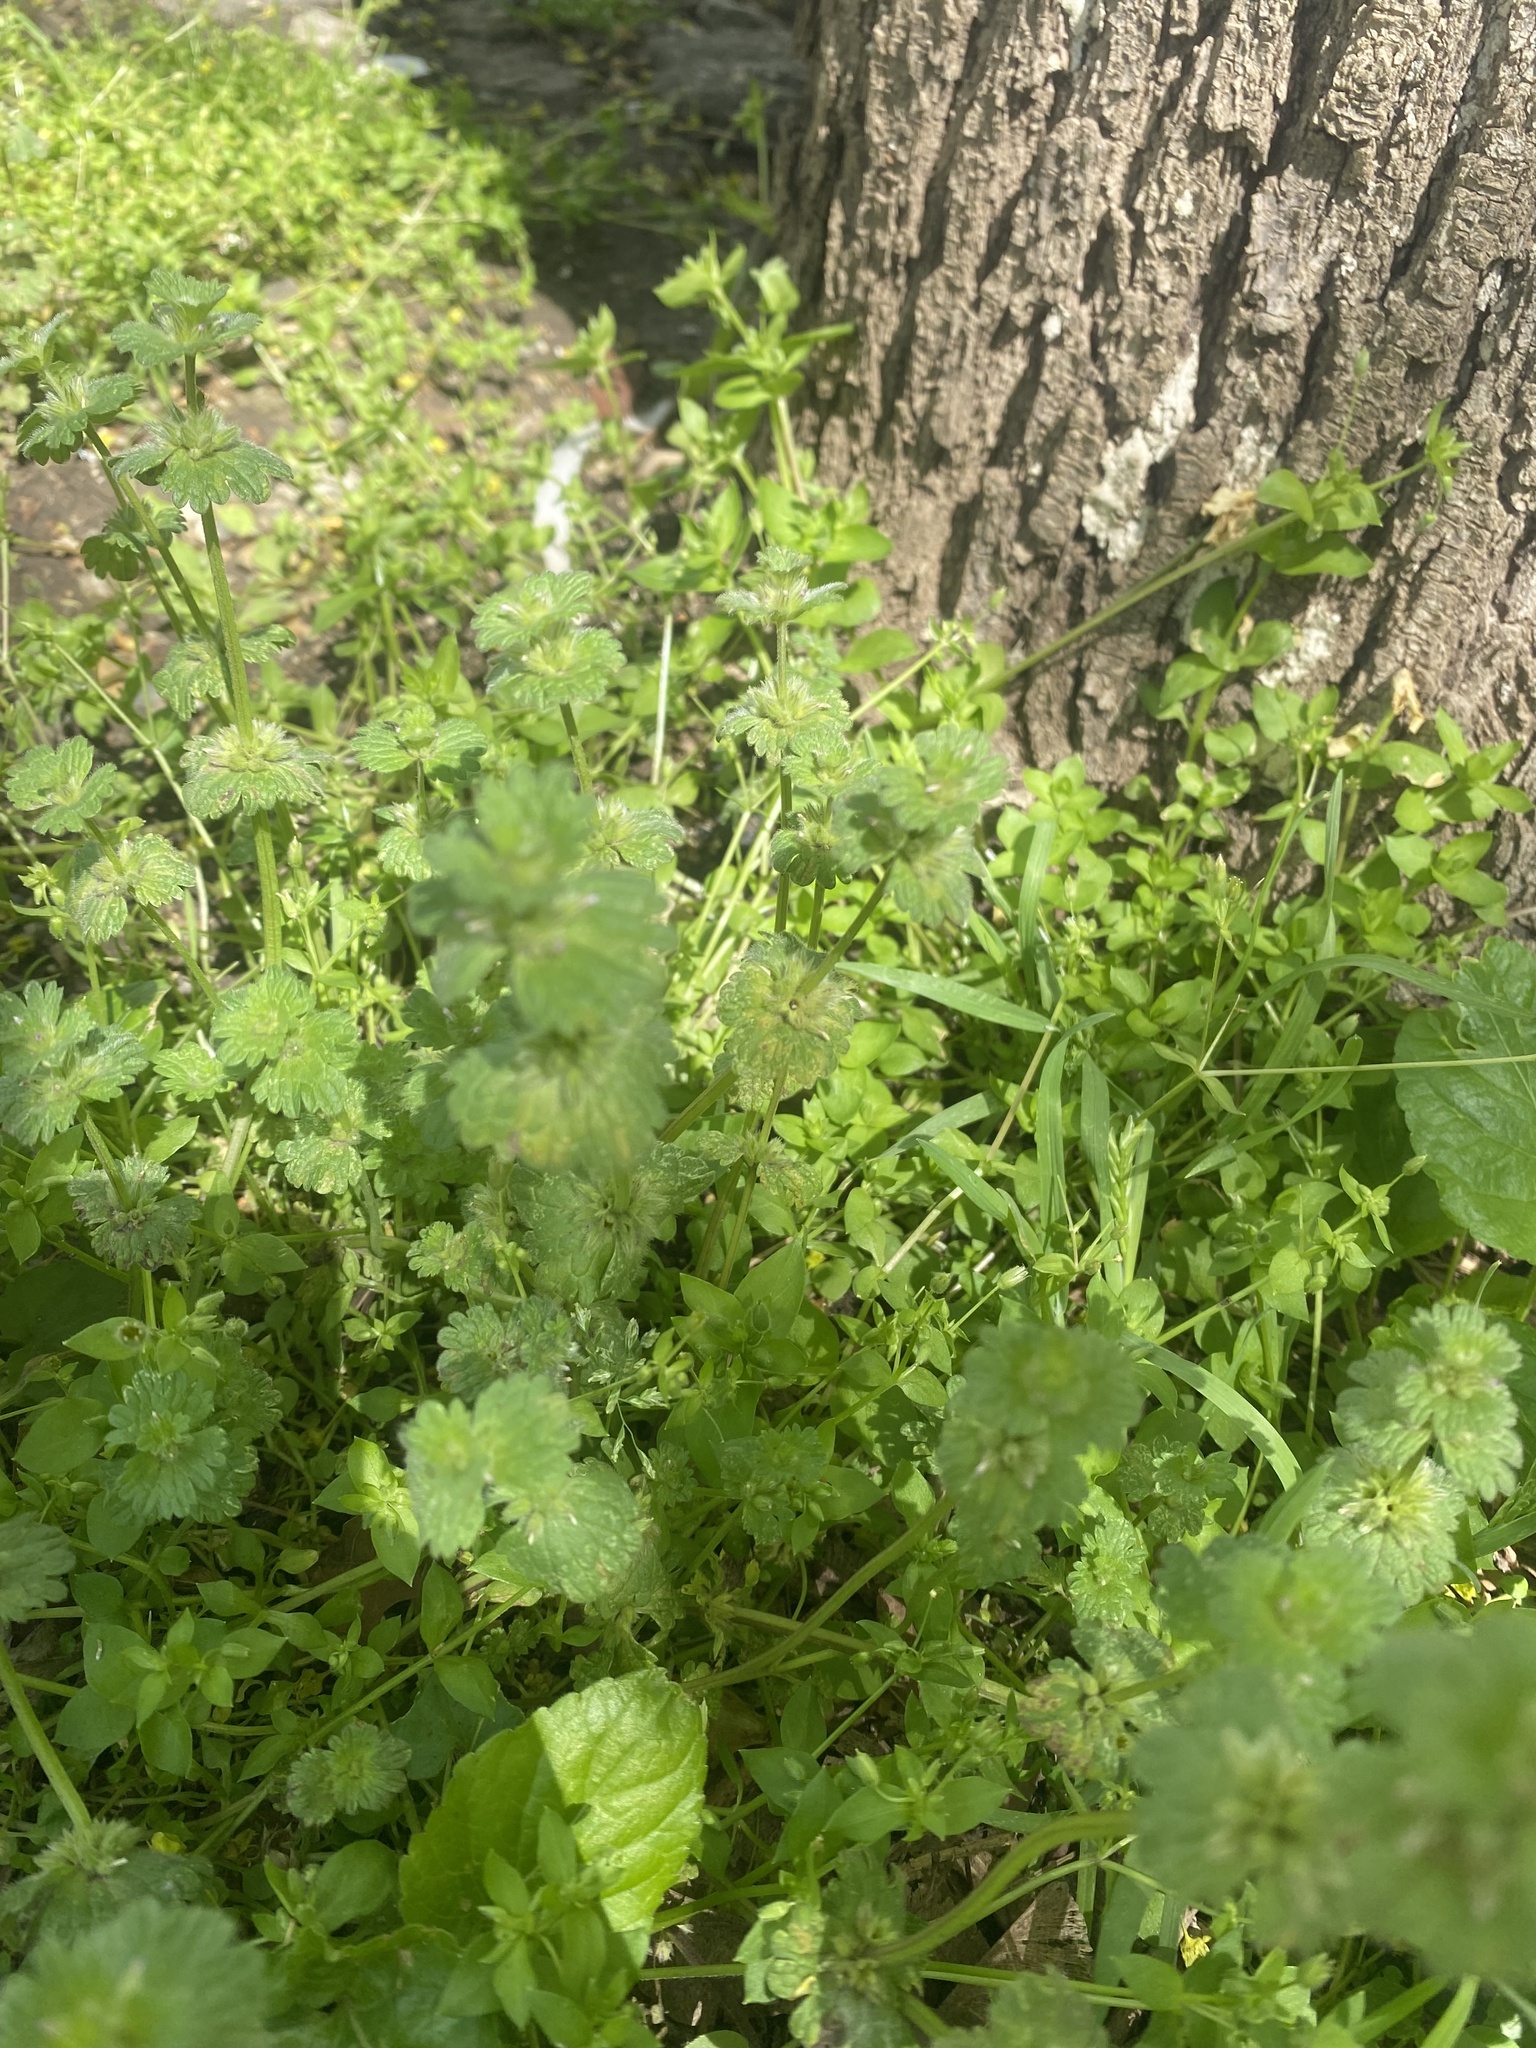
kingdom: Plantae
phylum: Tracheophyta
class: Magnoliopsida
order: Lamiales
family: Lamiaceae
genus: Lamium
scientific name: Lamium amplexicaule
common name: Henbit dead-nettle
